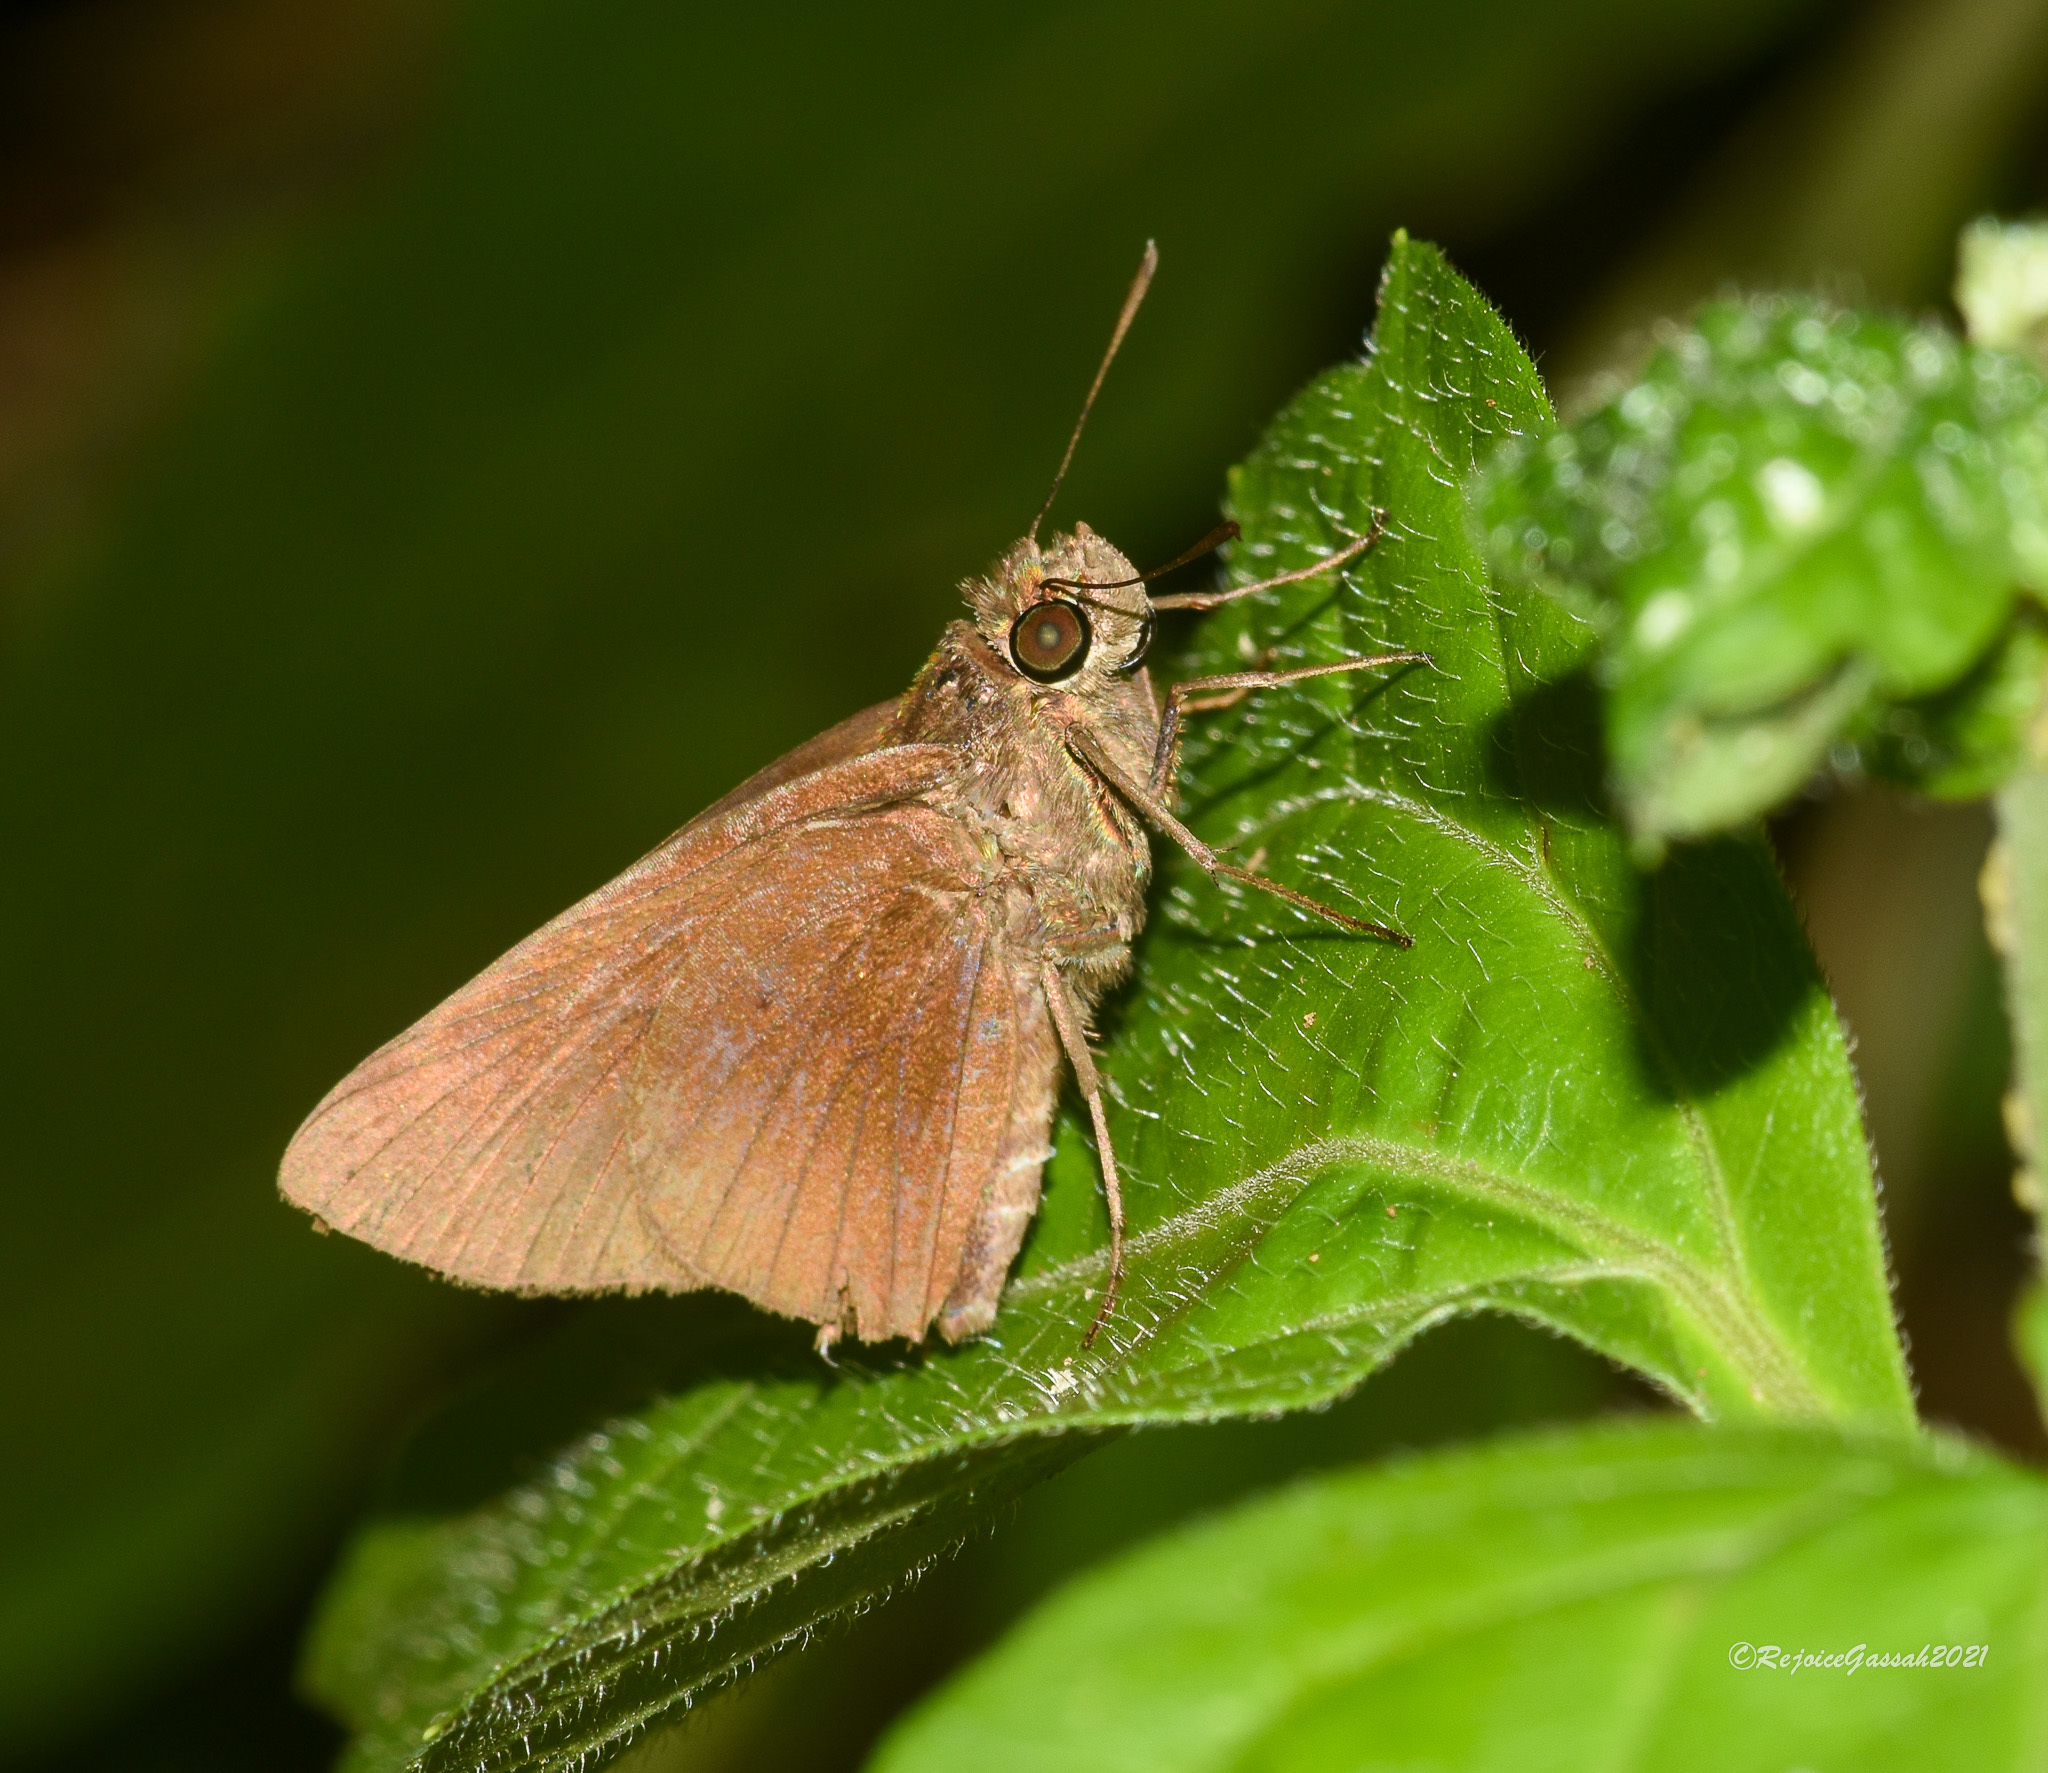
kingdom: Animalia
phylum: Arthropoda
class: Insecta
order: Lepidoptera
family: Hesperiidae
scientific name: Hesperiidae
